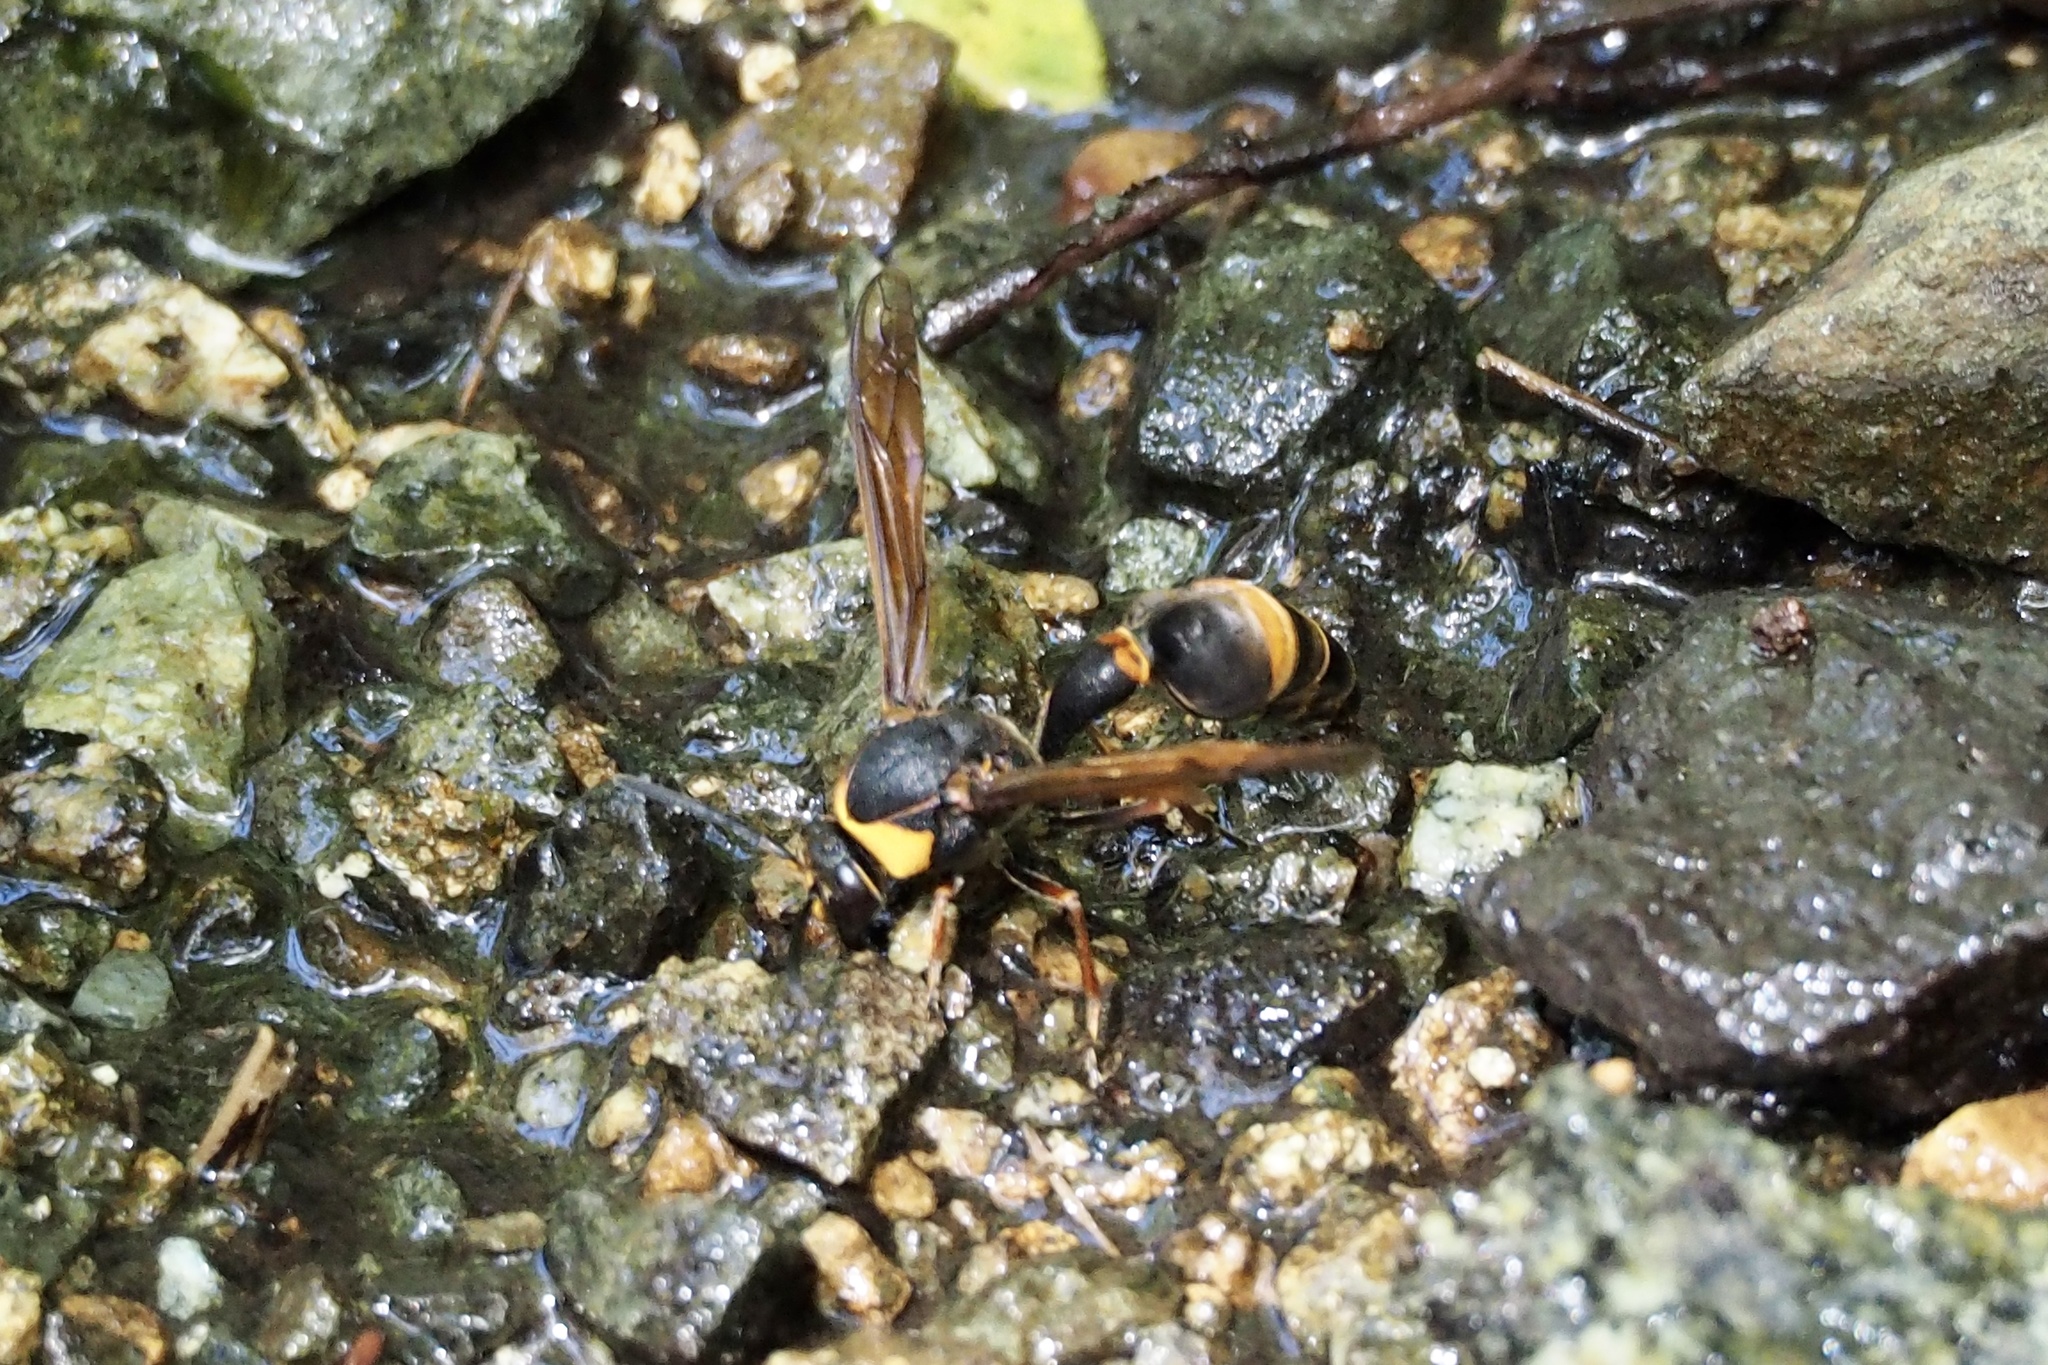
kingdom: Animalia
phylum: Arthropoda
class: Insecta
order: Hymenoptera
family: Eumenidae
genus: Oreumenes
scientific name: Oreumenes decoratus
